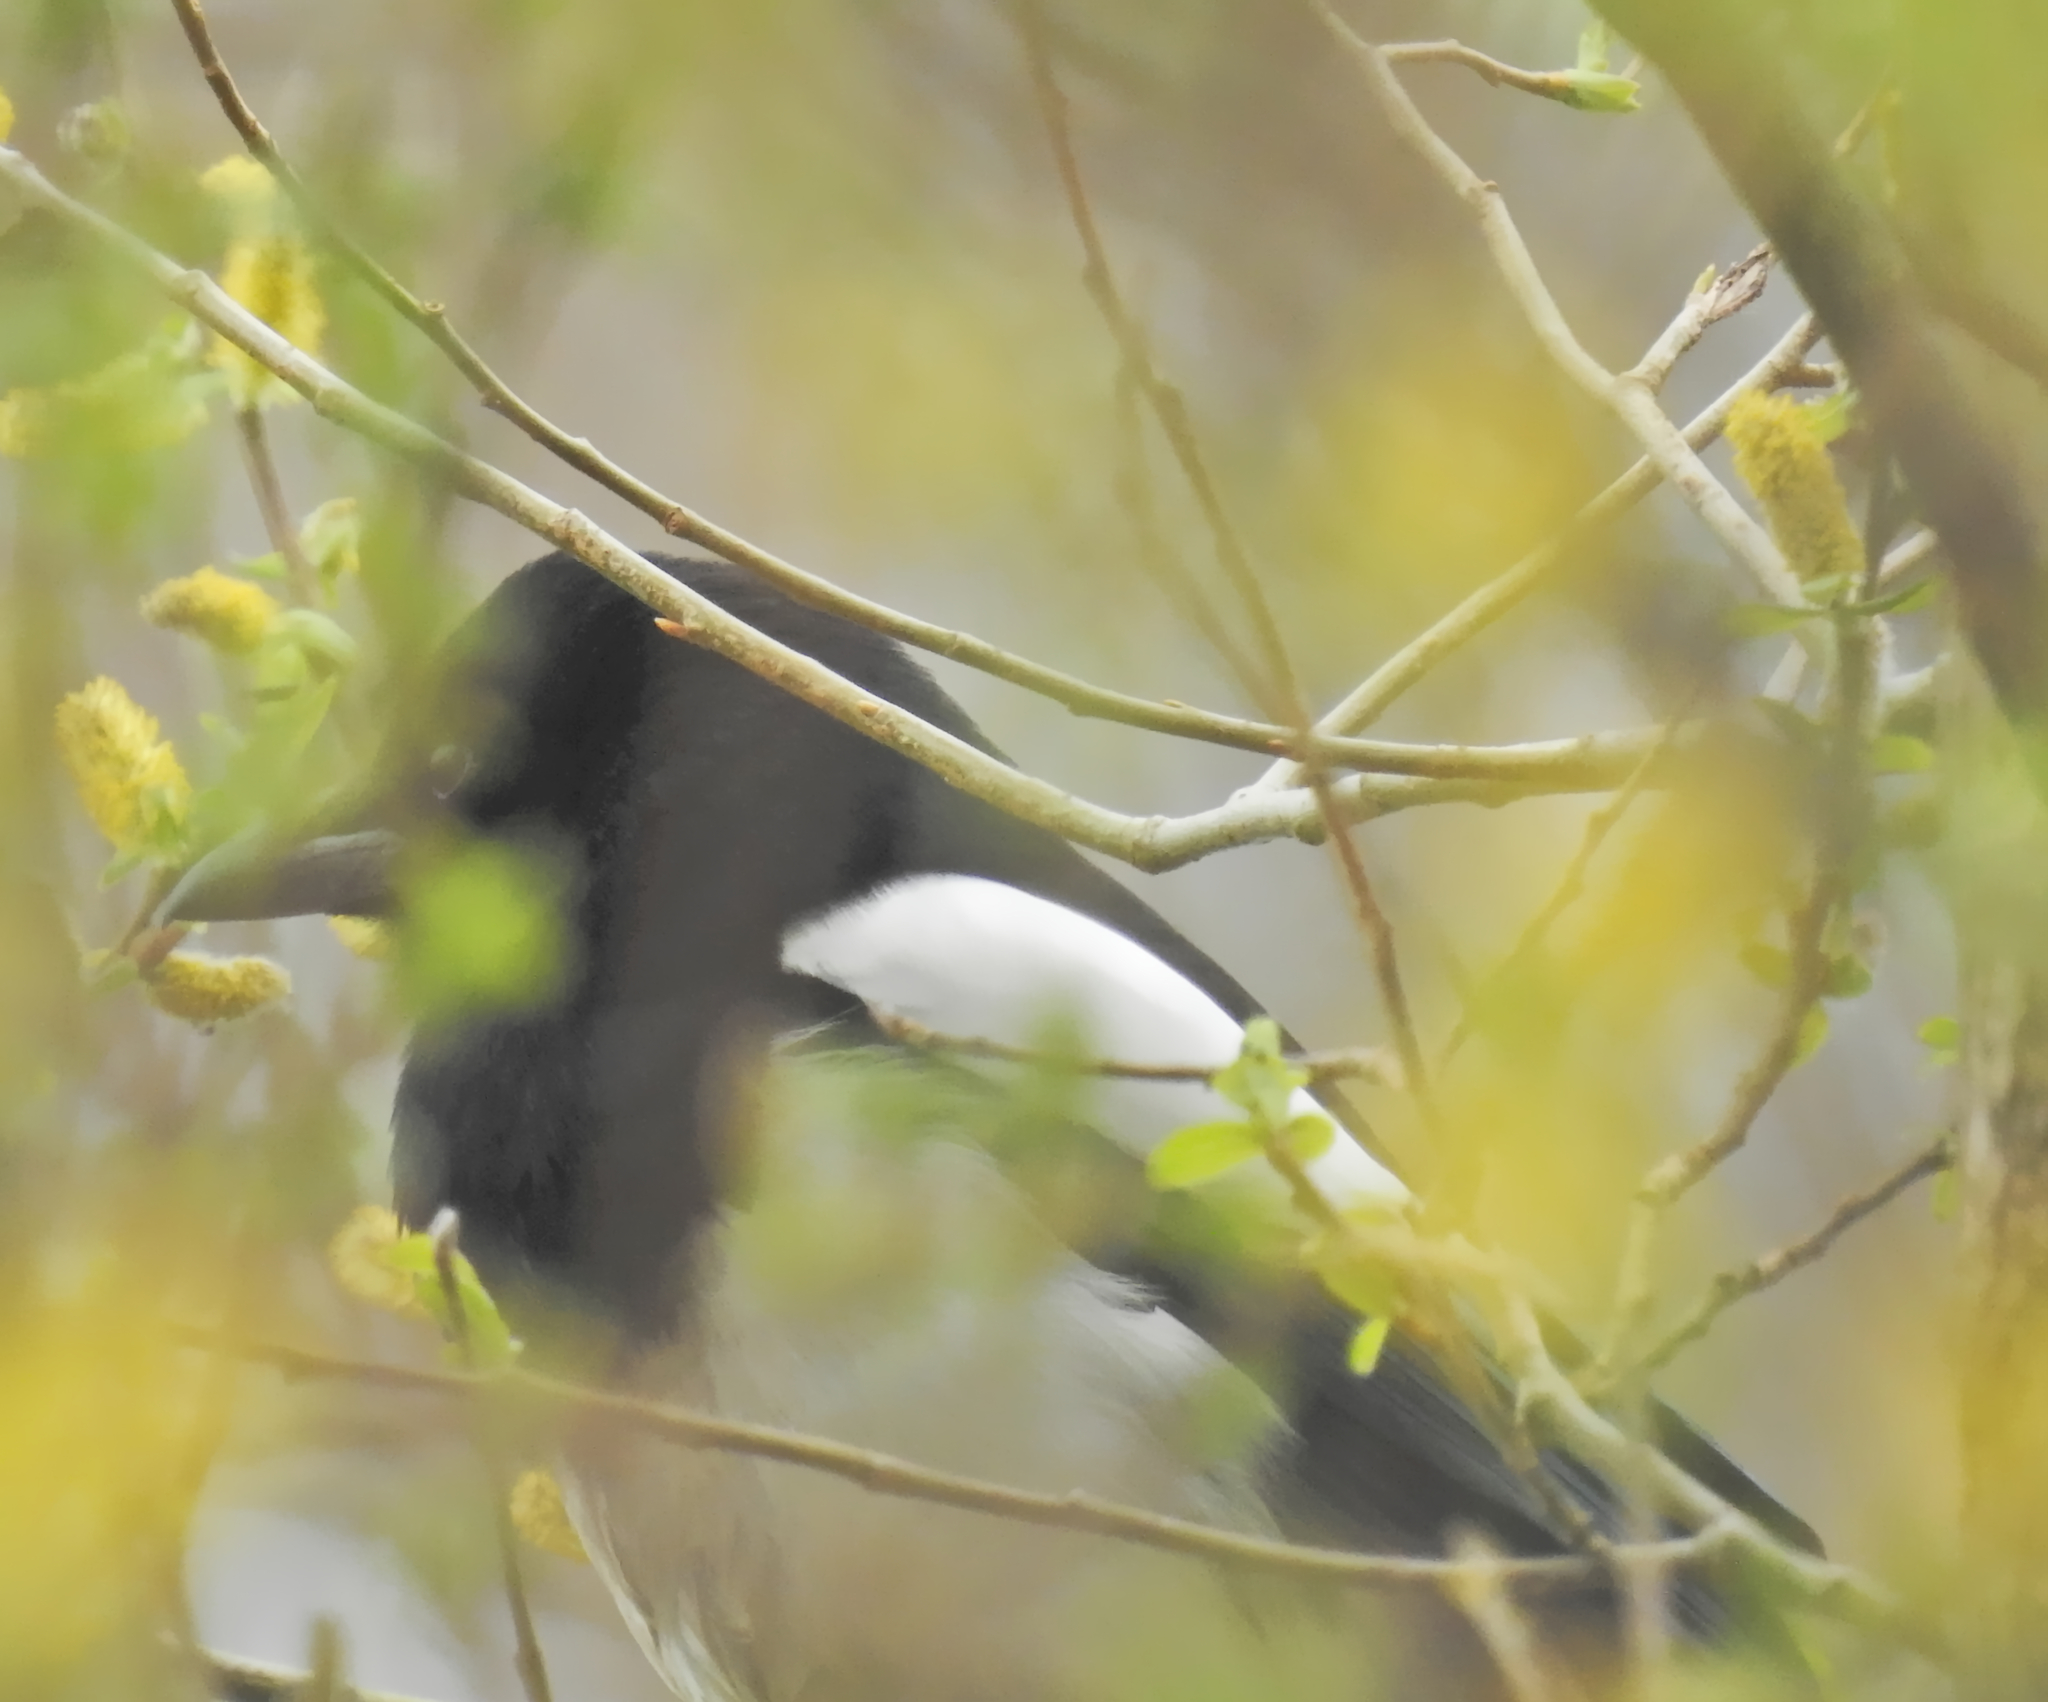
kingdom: Animalia
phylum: Chordata
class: Aves
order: Passeriformes
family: Corvidae
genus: Pica
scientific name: Pica pica
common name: Eurasian magpie
